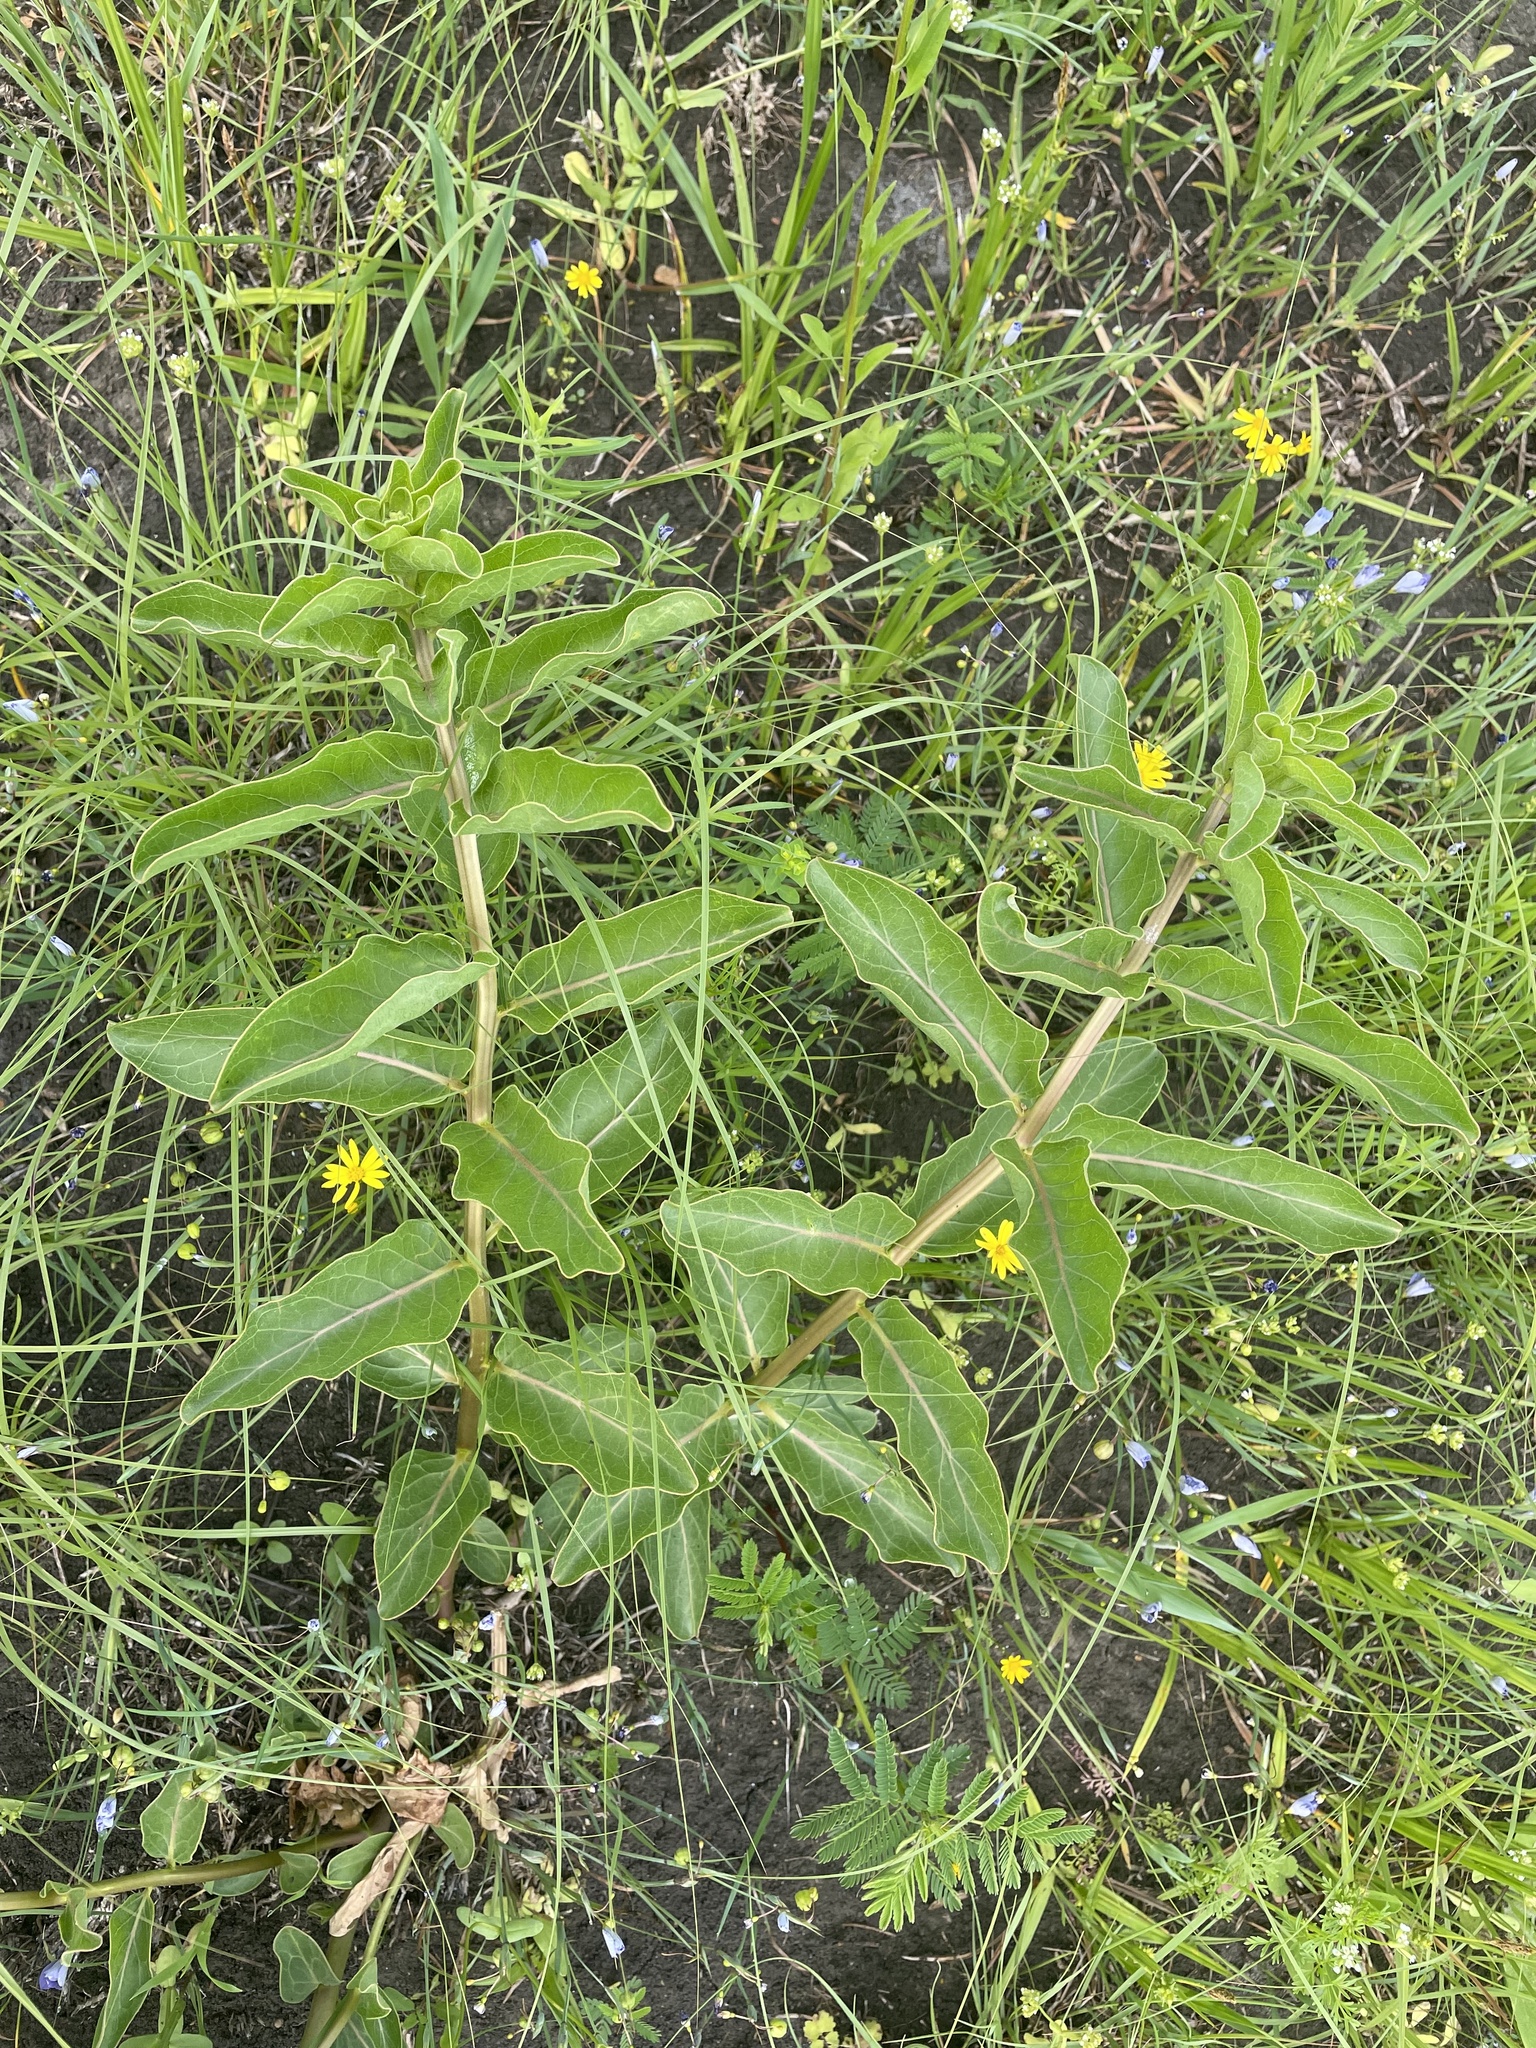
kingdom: Plantae
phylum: Tracheophyta
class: Magnoliopsida
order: Gentianales
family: Apocynaceae
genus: Asclepias
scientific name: Asclepias viridis
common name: Antelope-horns
